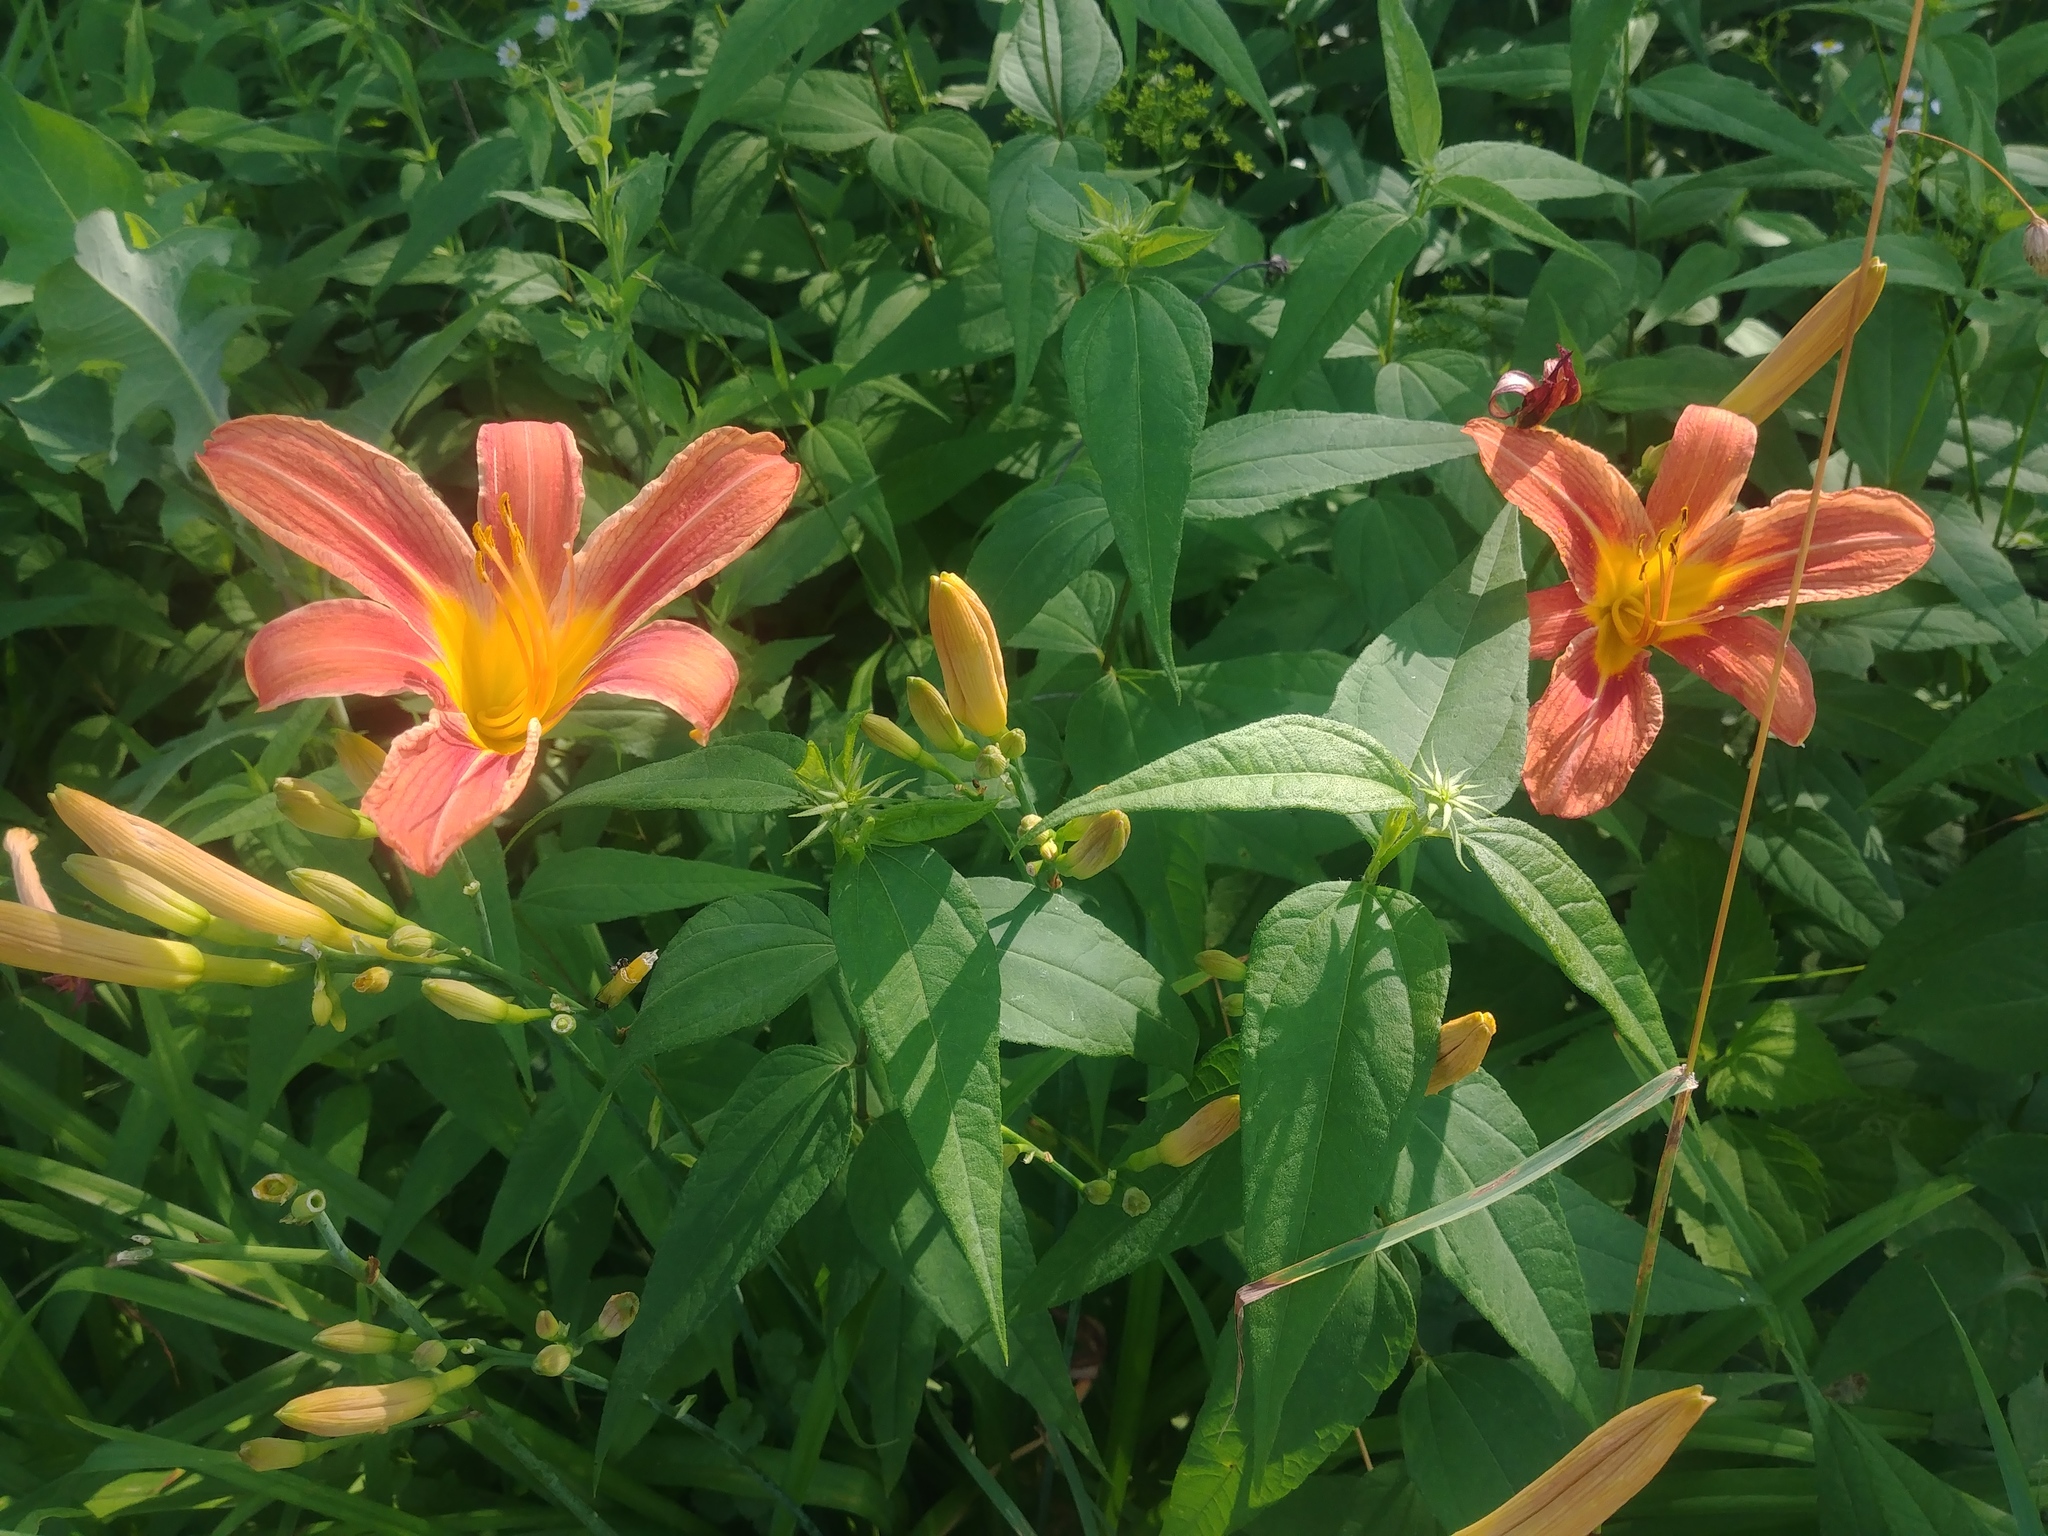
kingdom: Plantae
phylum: Tracheophyta
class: Liliopsida
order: Asparagales
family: Asphodelaceae
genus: Hemerocallis
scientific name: Hemerocallis fulva
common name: Orange day-lily
